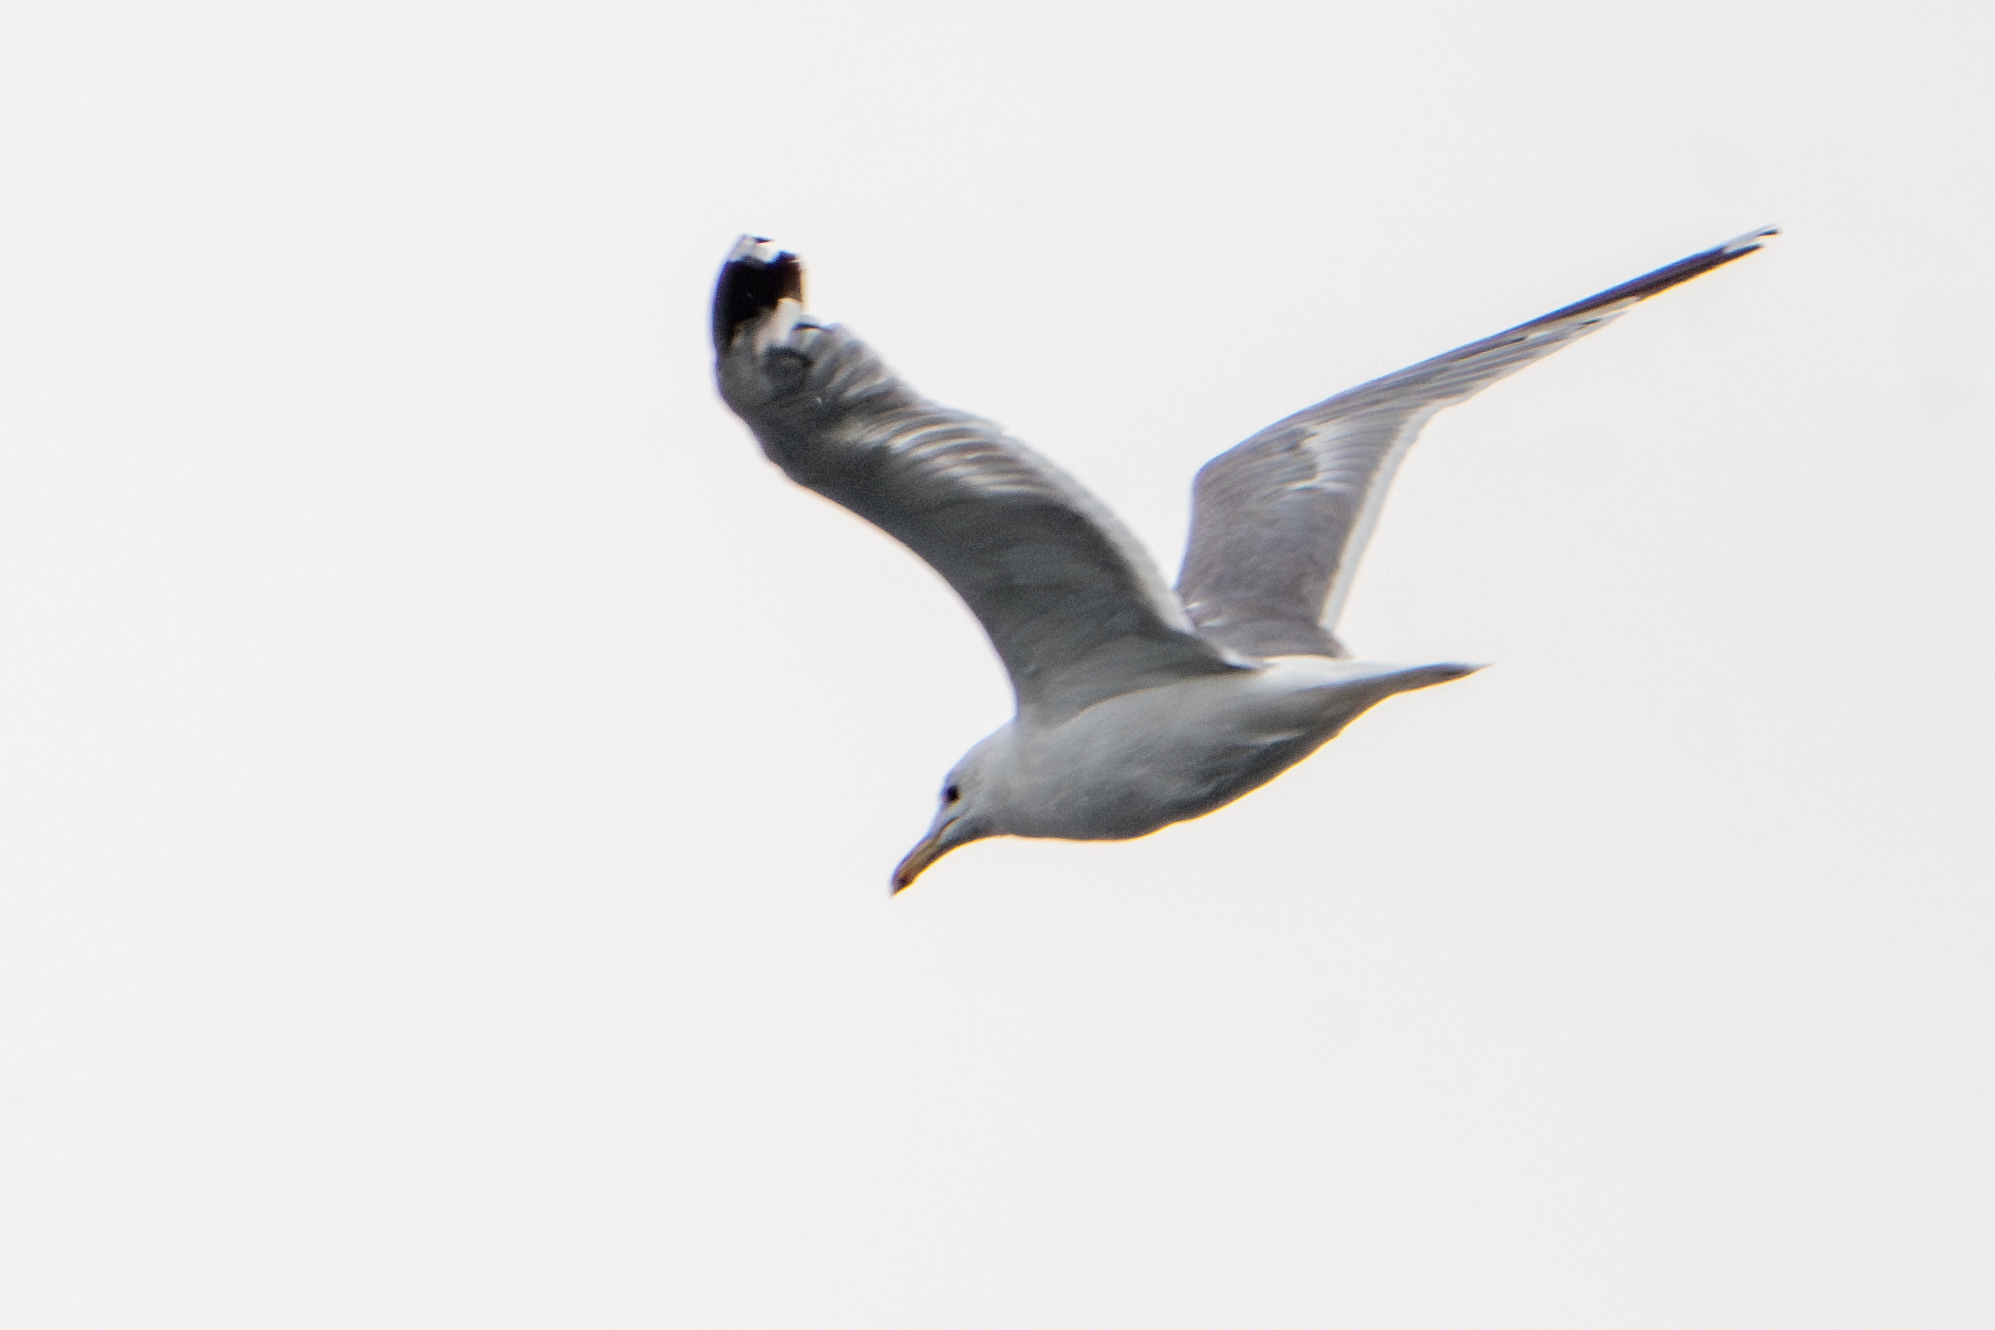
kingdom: Animalia
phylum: Chordata
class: Aves
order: Charadriiformes
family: Laridae
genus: Larus
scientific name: Larus californicus
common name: California gull
